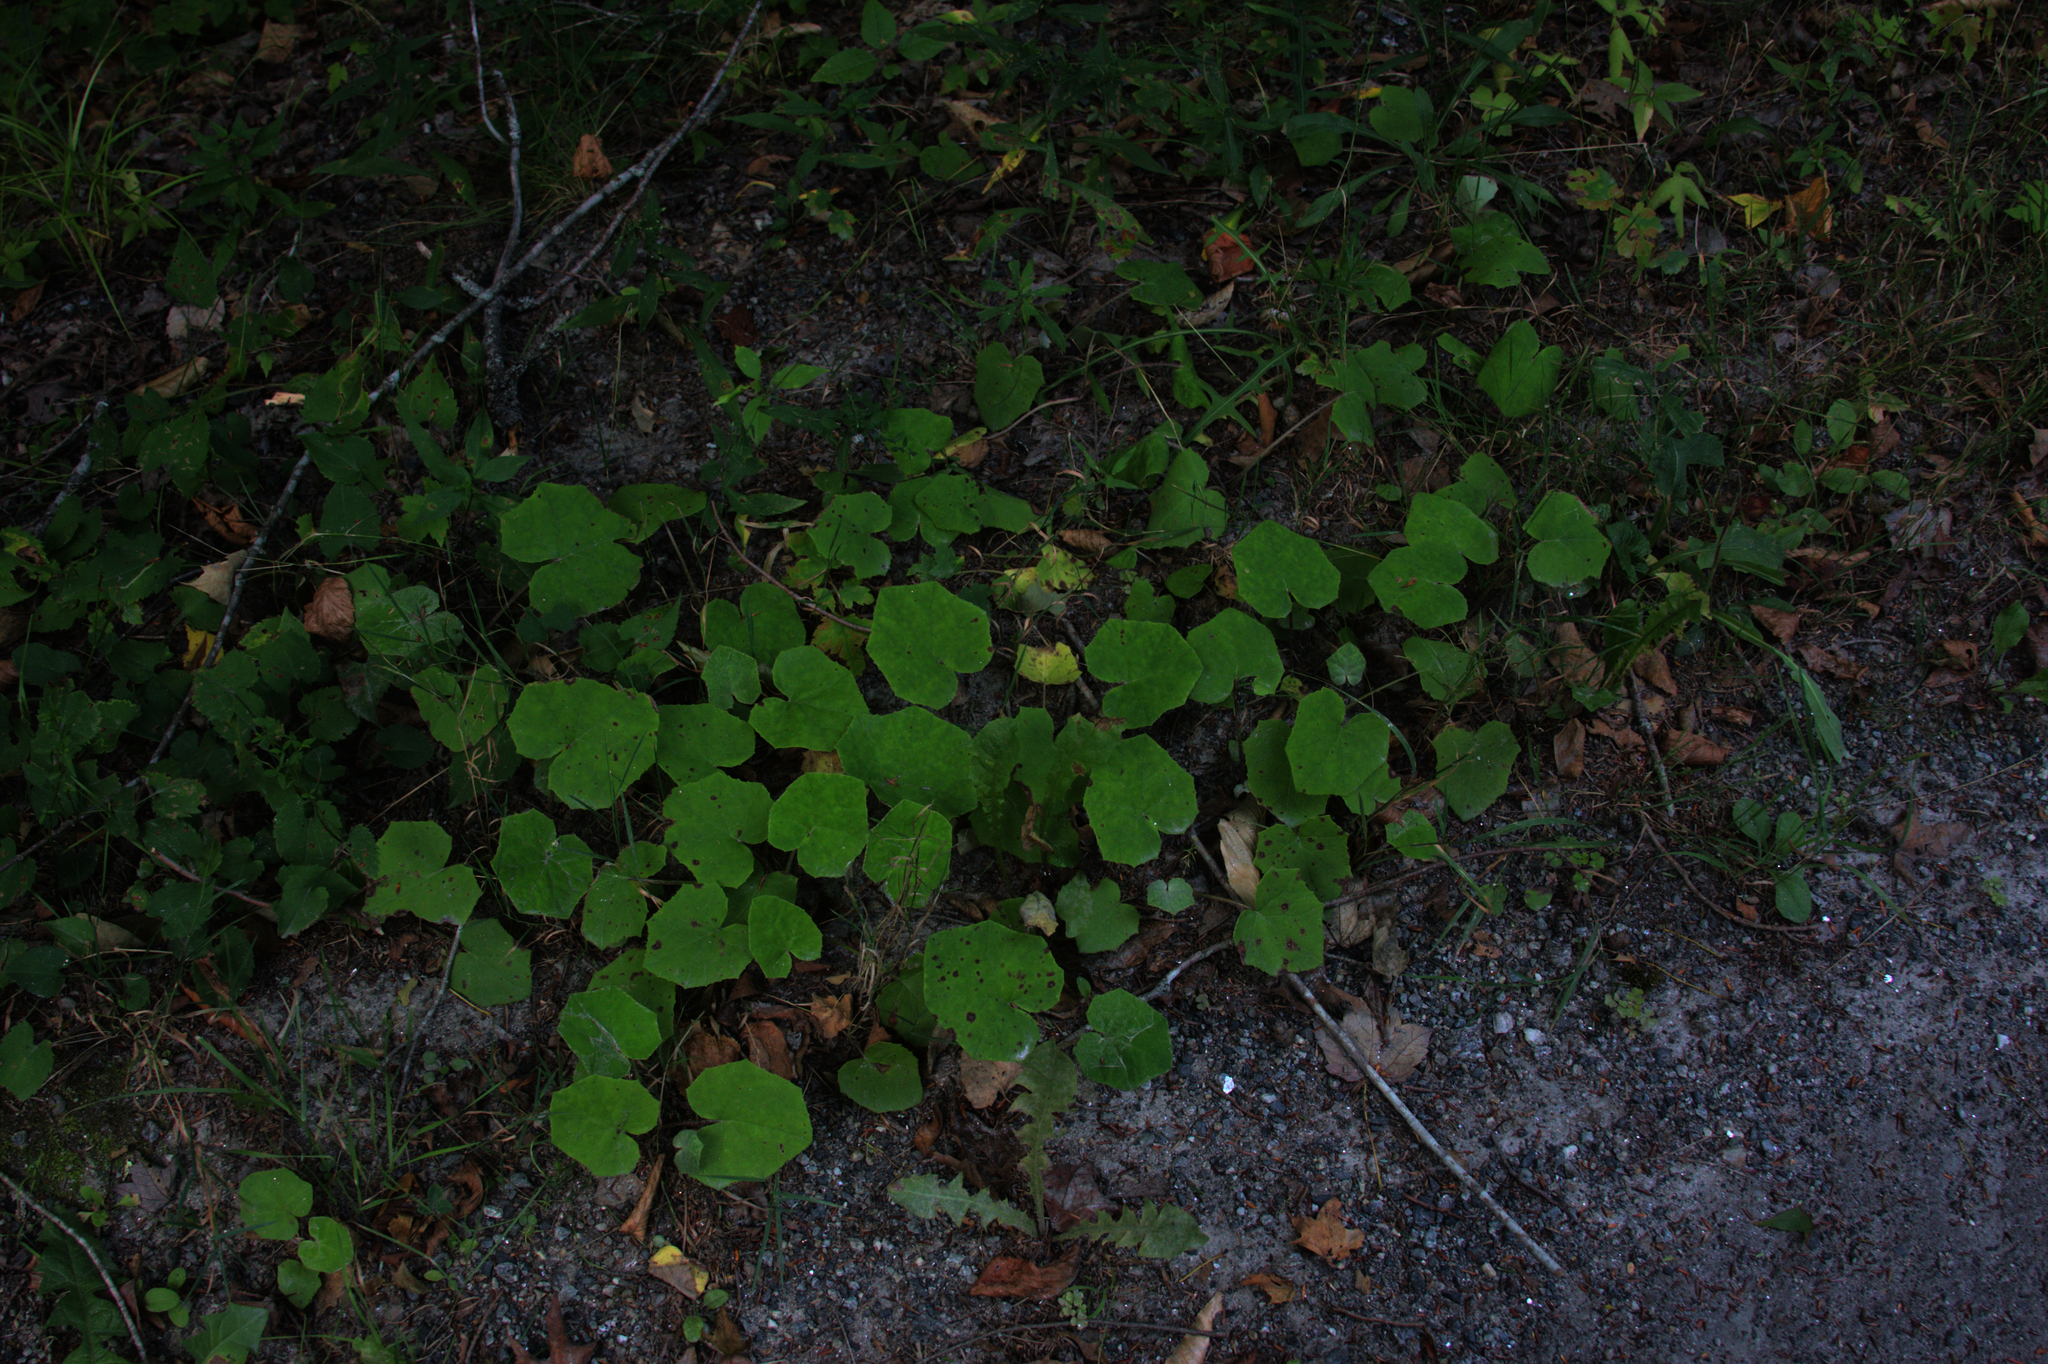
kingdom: Plantae
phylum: Tracheophyta
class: Magnoliopsida
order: Asterales
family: Asteraceae
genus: Tussilago
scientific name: Tussilago farfara
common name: Coltsfoot
